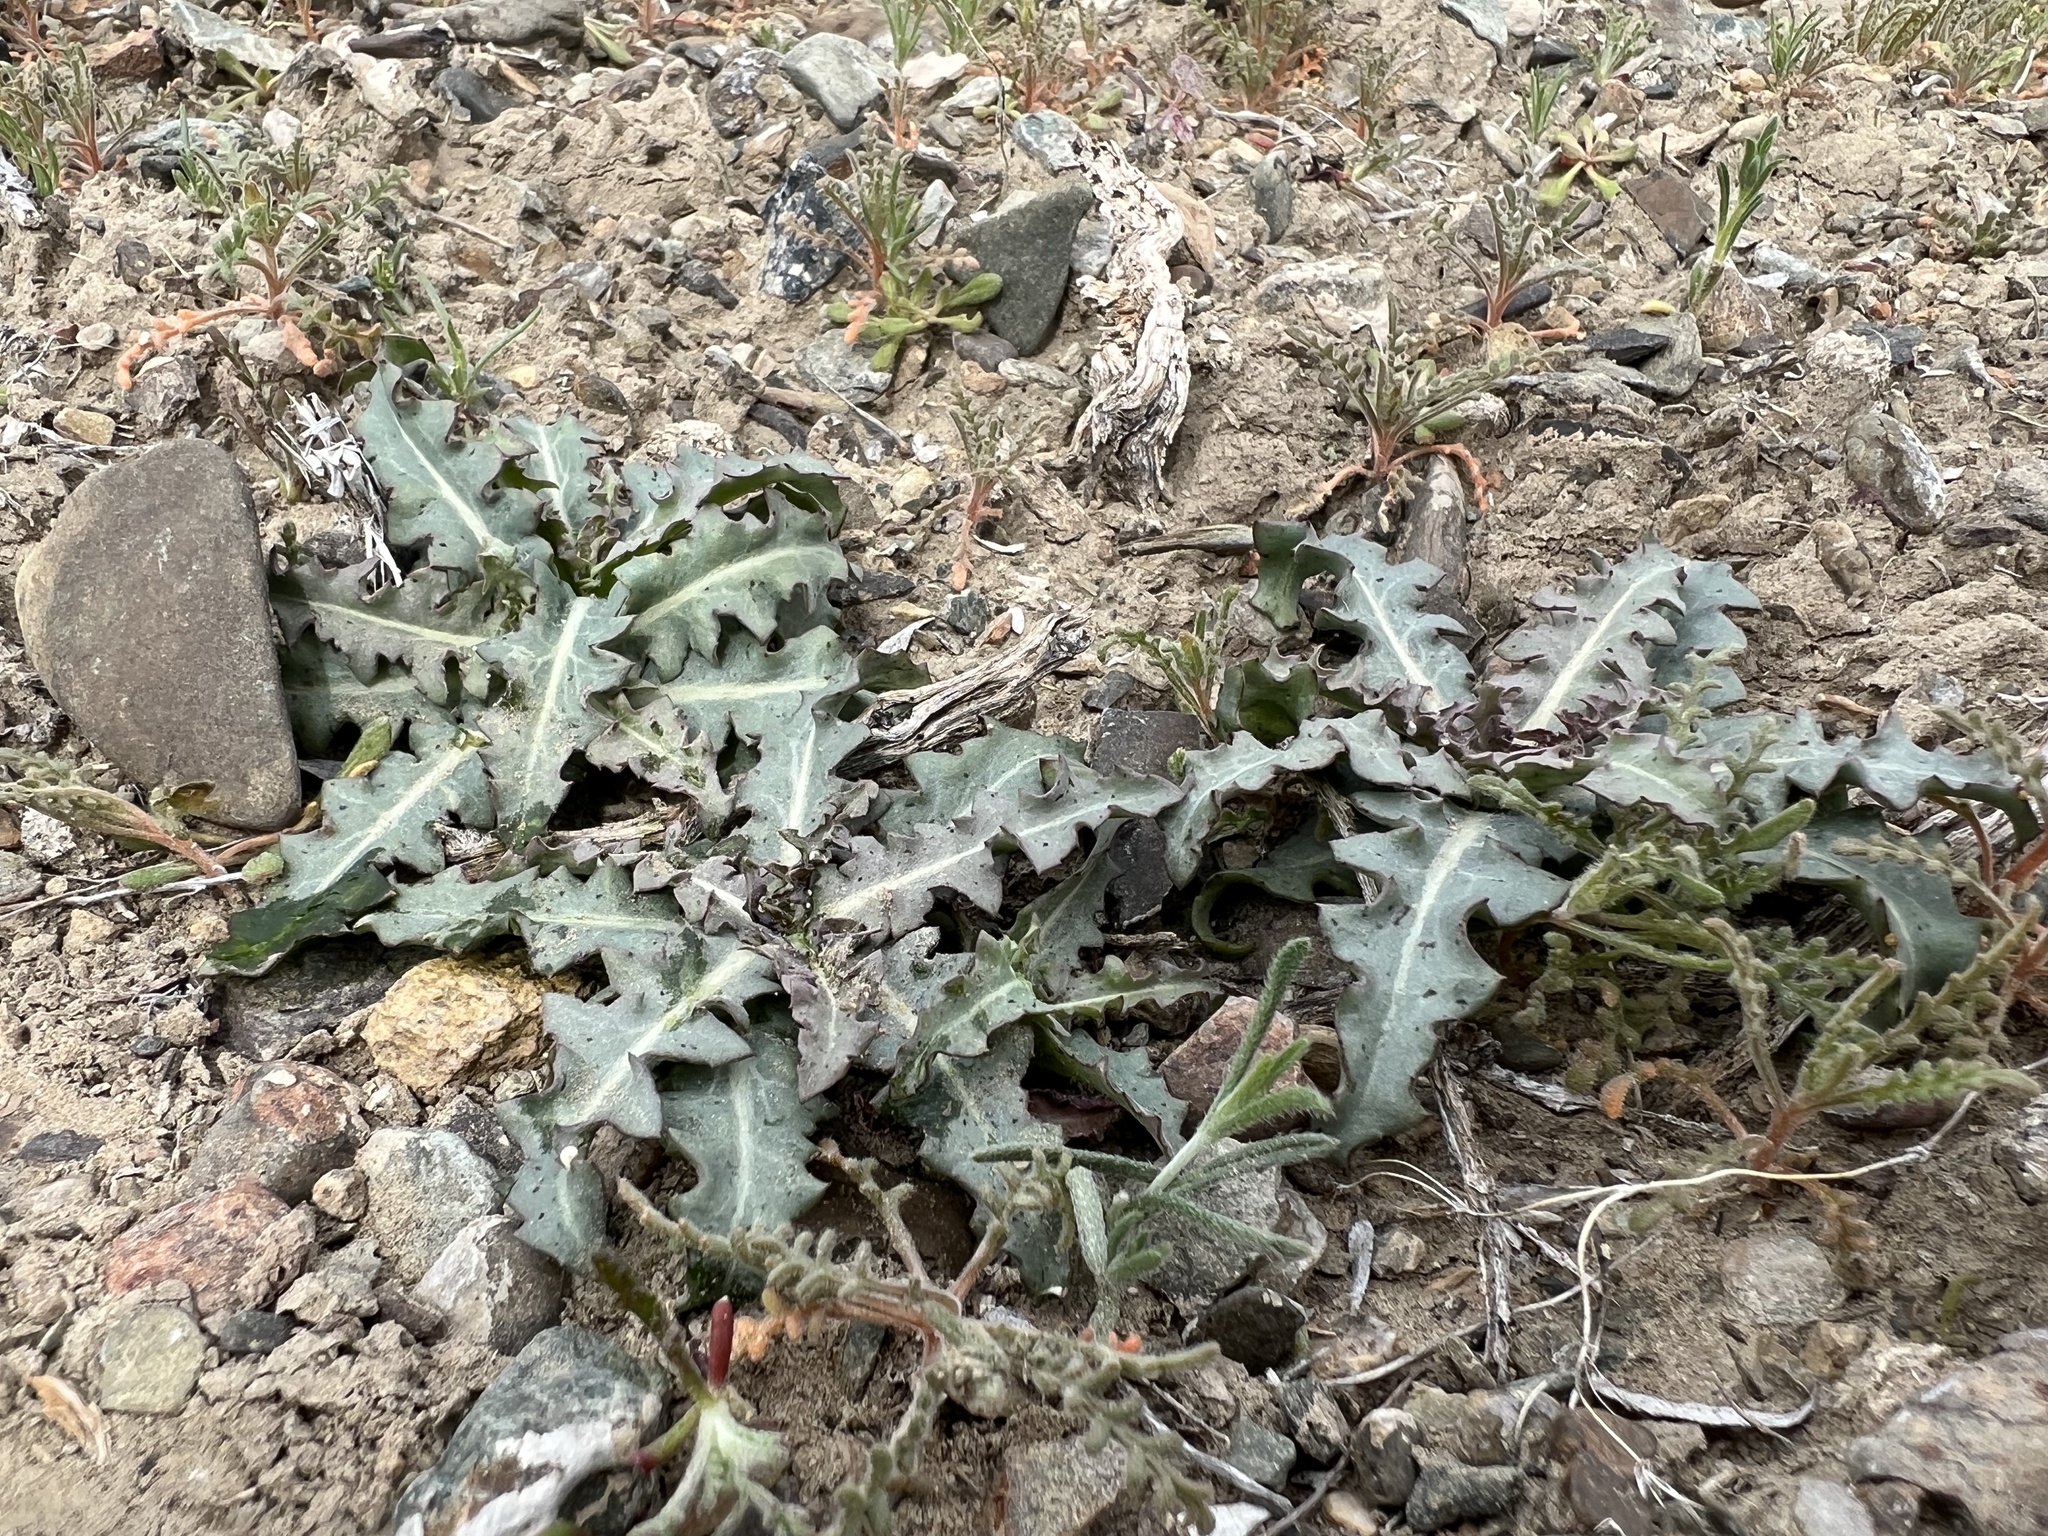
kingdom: Plantae
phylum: Tracheophyta
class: Magnoliopsida
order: Asterales
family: Asteraceae
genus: Stephanomeria
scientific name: Stephanomeria parryi
